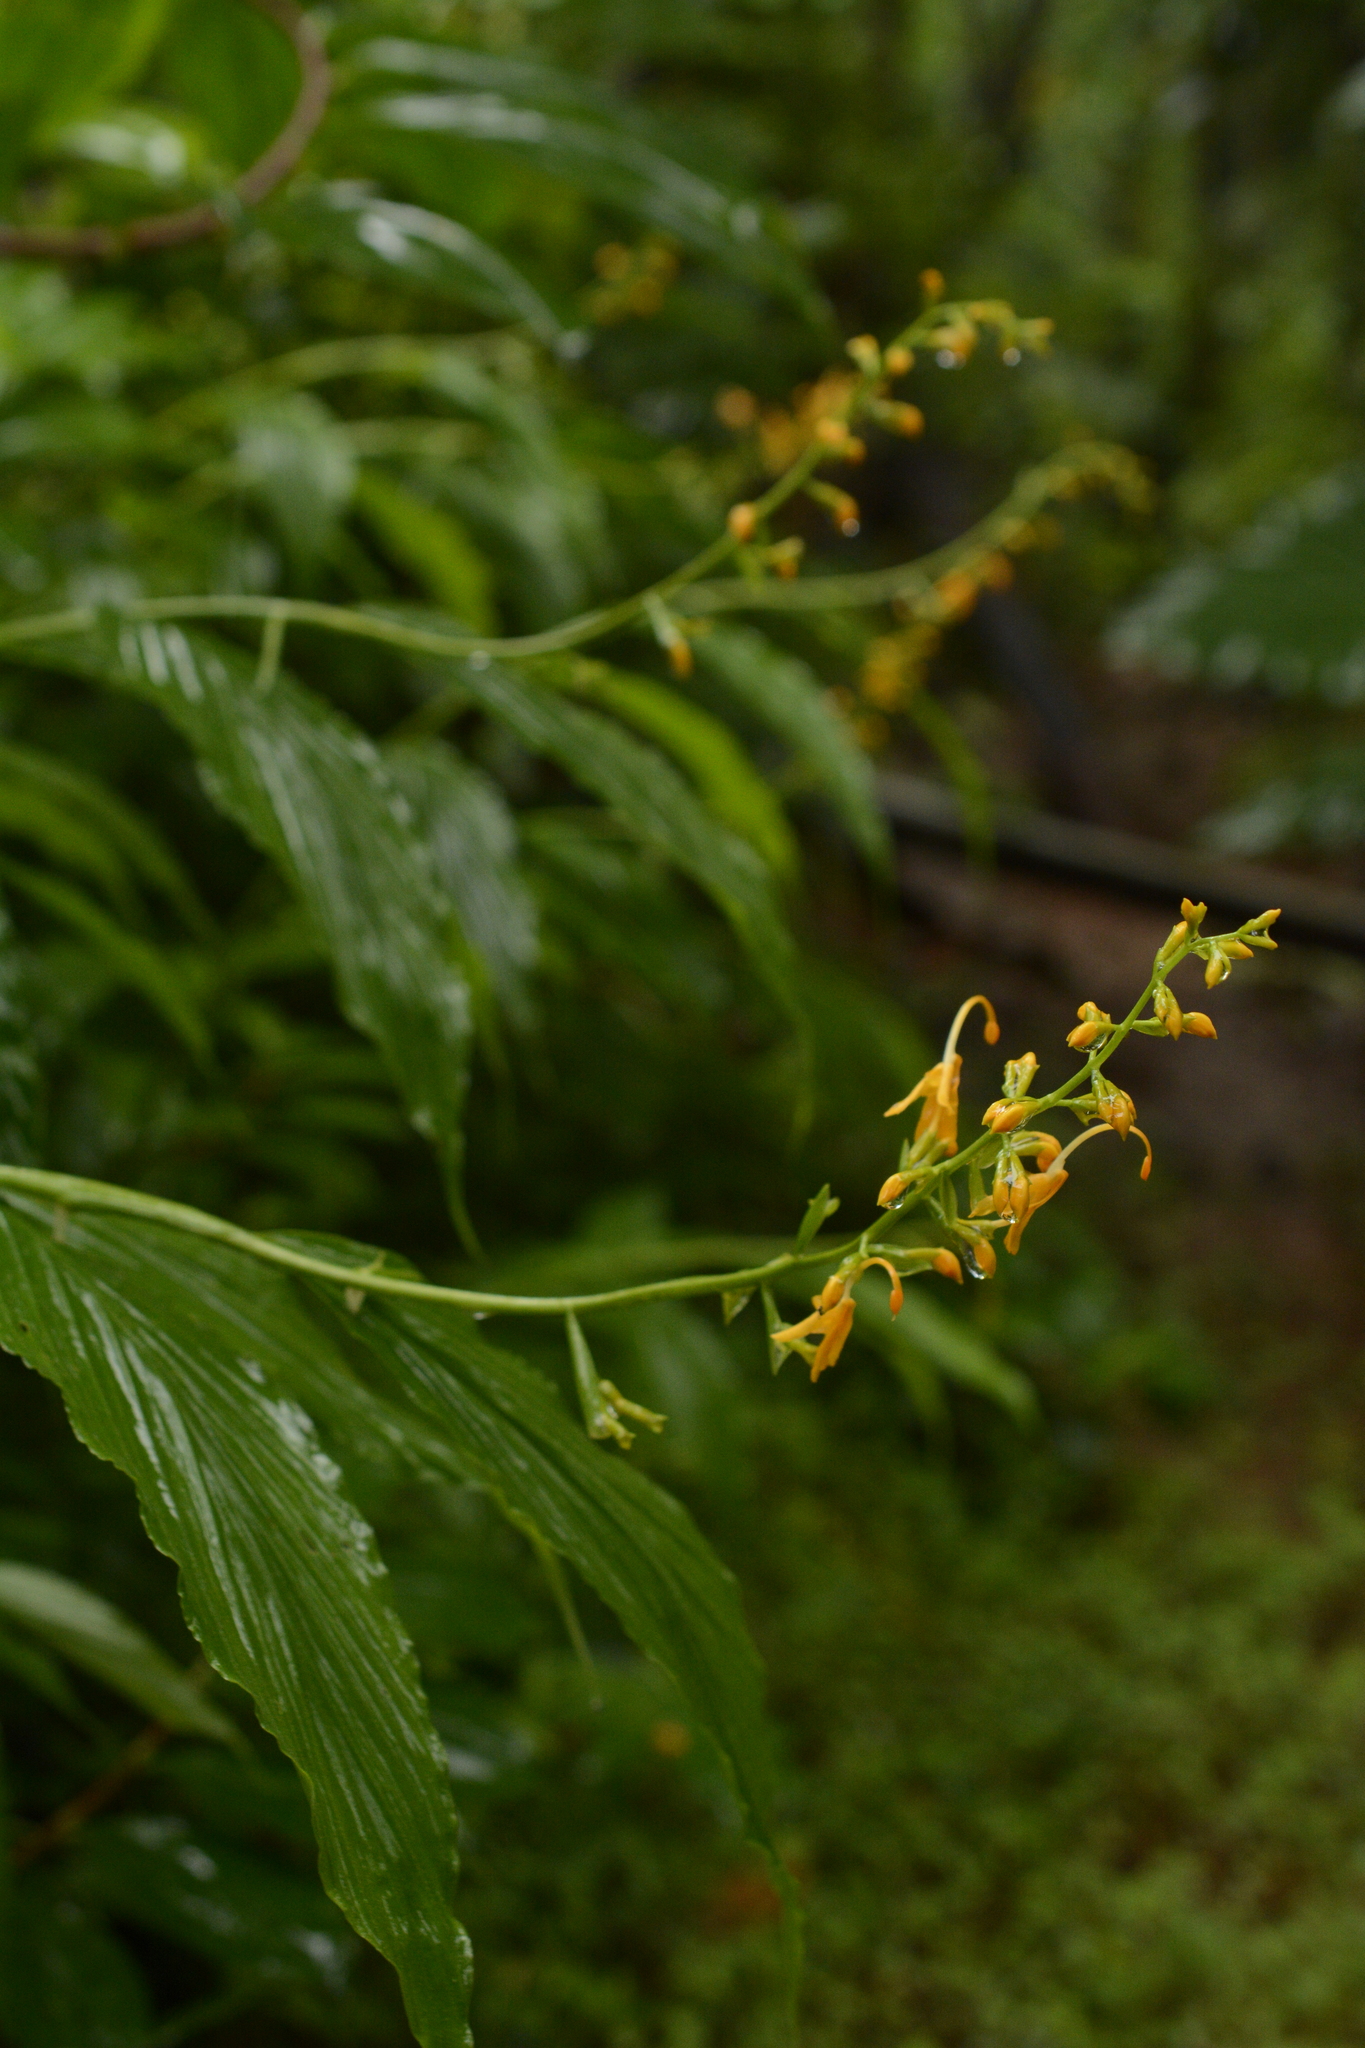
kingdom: Plantae
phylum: Tracheophyta
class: Liliopsida
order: Zingiberales
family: Zingiberaceae
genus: Globba
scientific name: Globba sessiliflora
